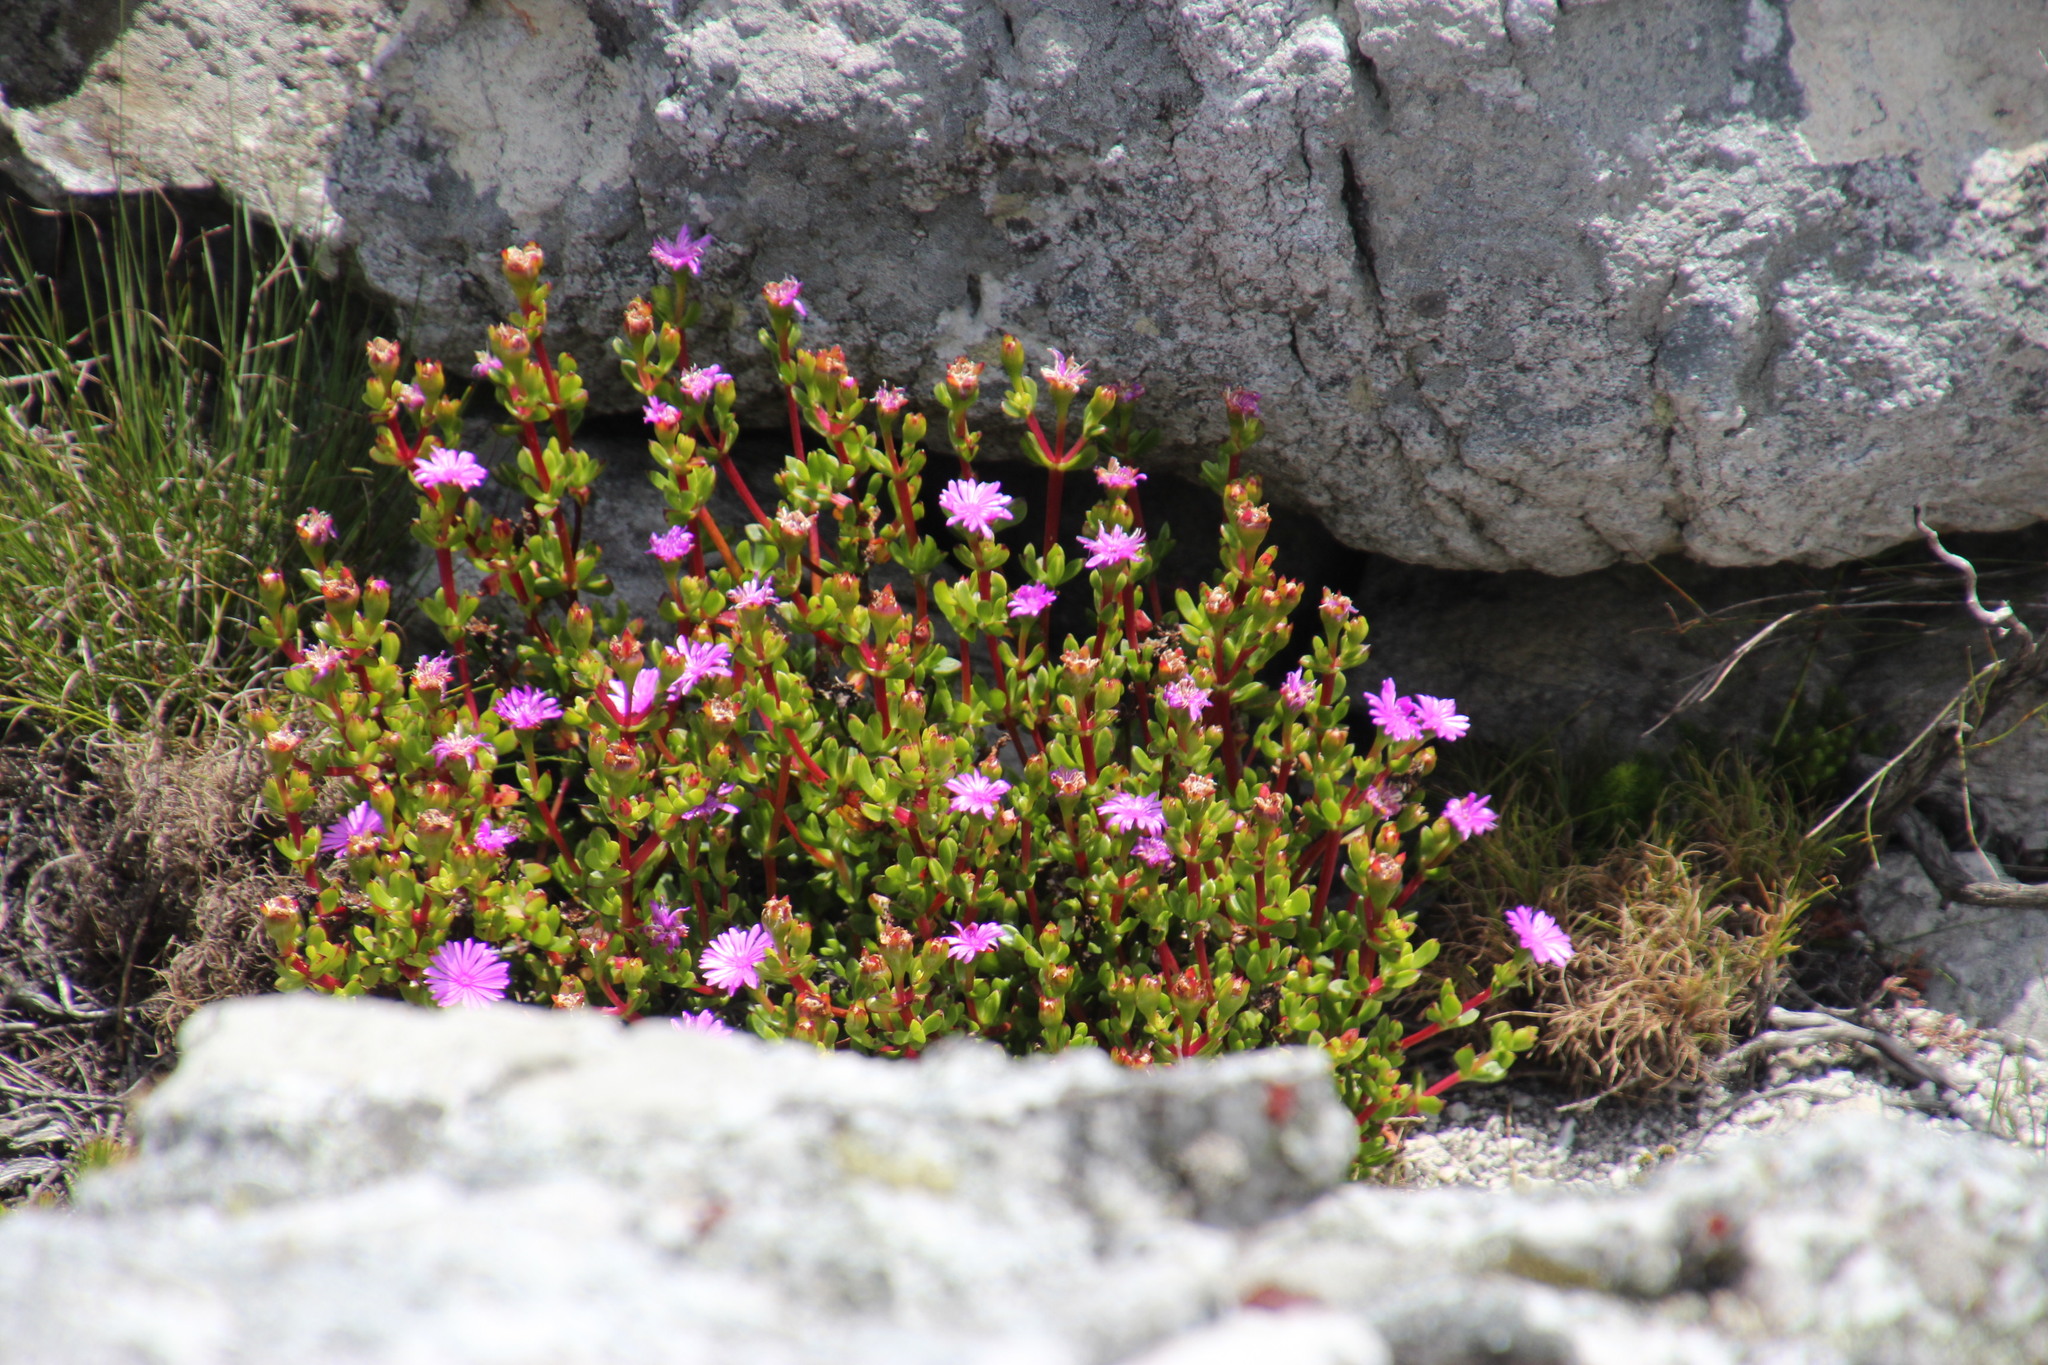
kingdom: Plantae
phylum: Tracheophyta
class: Magnoliopsida
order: Caryophyllales
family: Aizoaceae
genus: Erepsia
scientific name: Erepsia inclaudens
